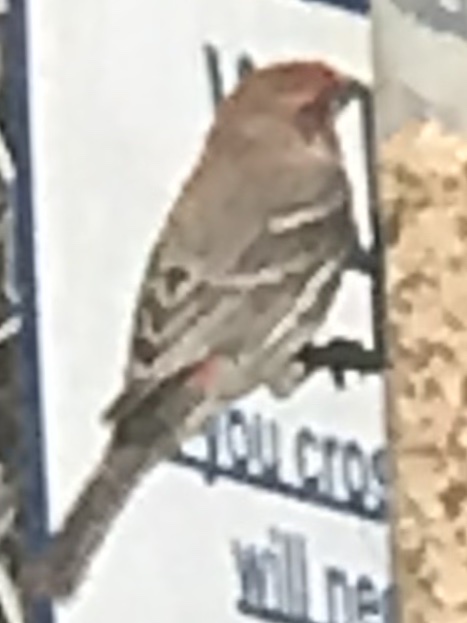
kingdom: Animalia
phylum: Chordata
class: Aves
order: Passeriformes
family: Fringillidae
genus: Haemorhous
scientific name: Haemorhous mexicanus
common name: House finch
